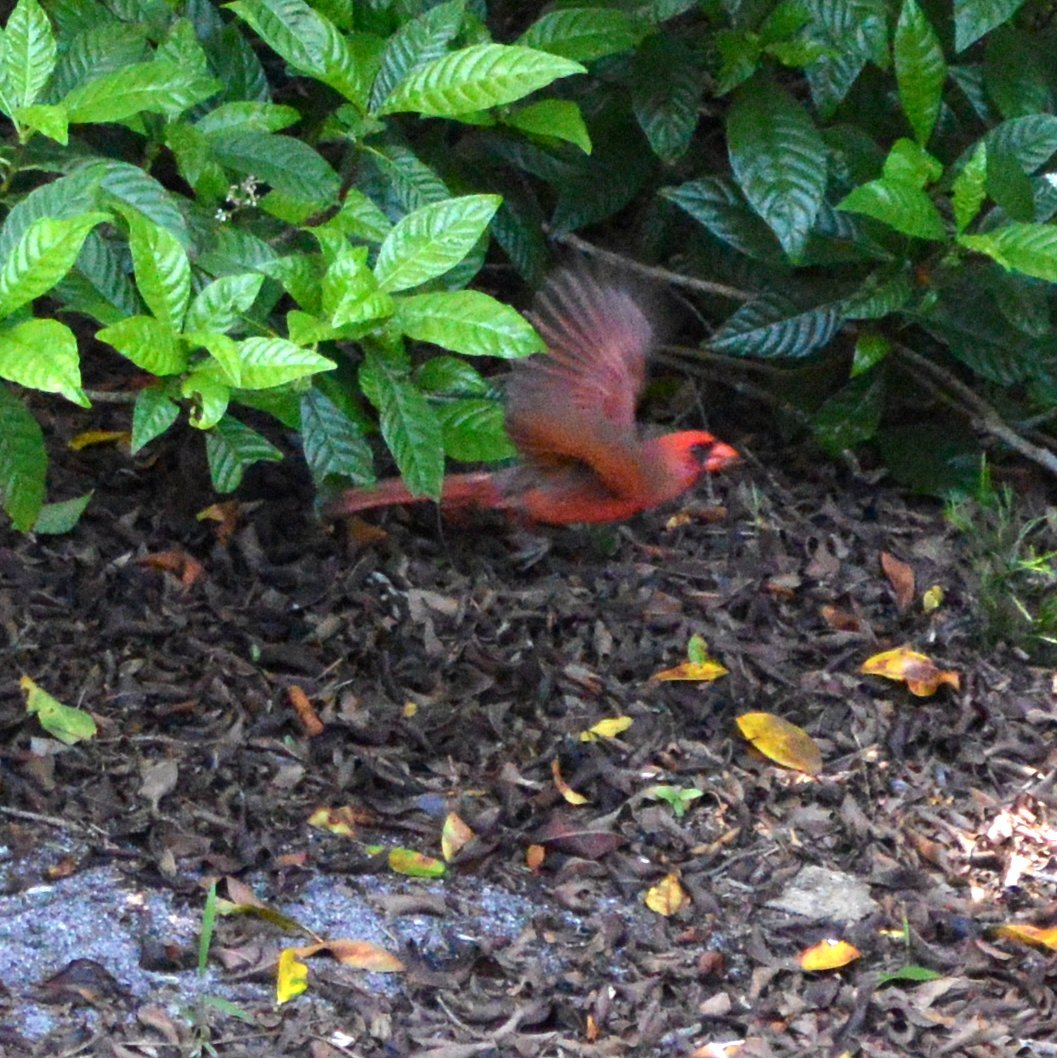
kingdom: Animalia
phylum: Chordata
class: Aves
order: Passeriformes
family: Cardinalidae
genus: Cardinalis
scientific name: Cardinalis cardinalis
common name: Northern cardinal
